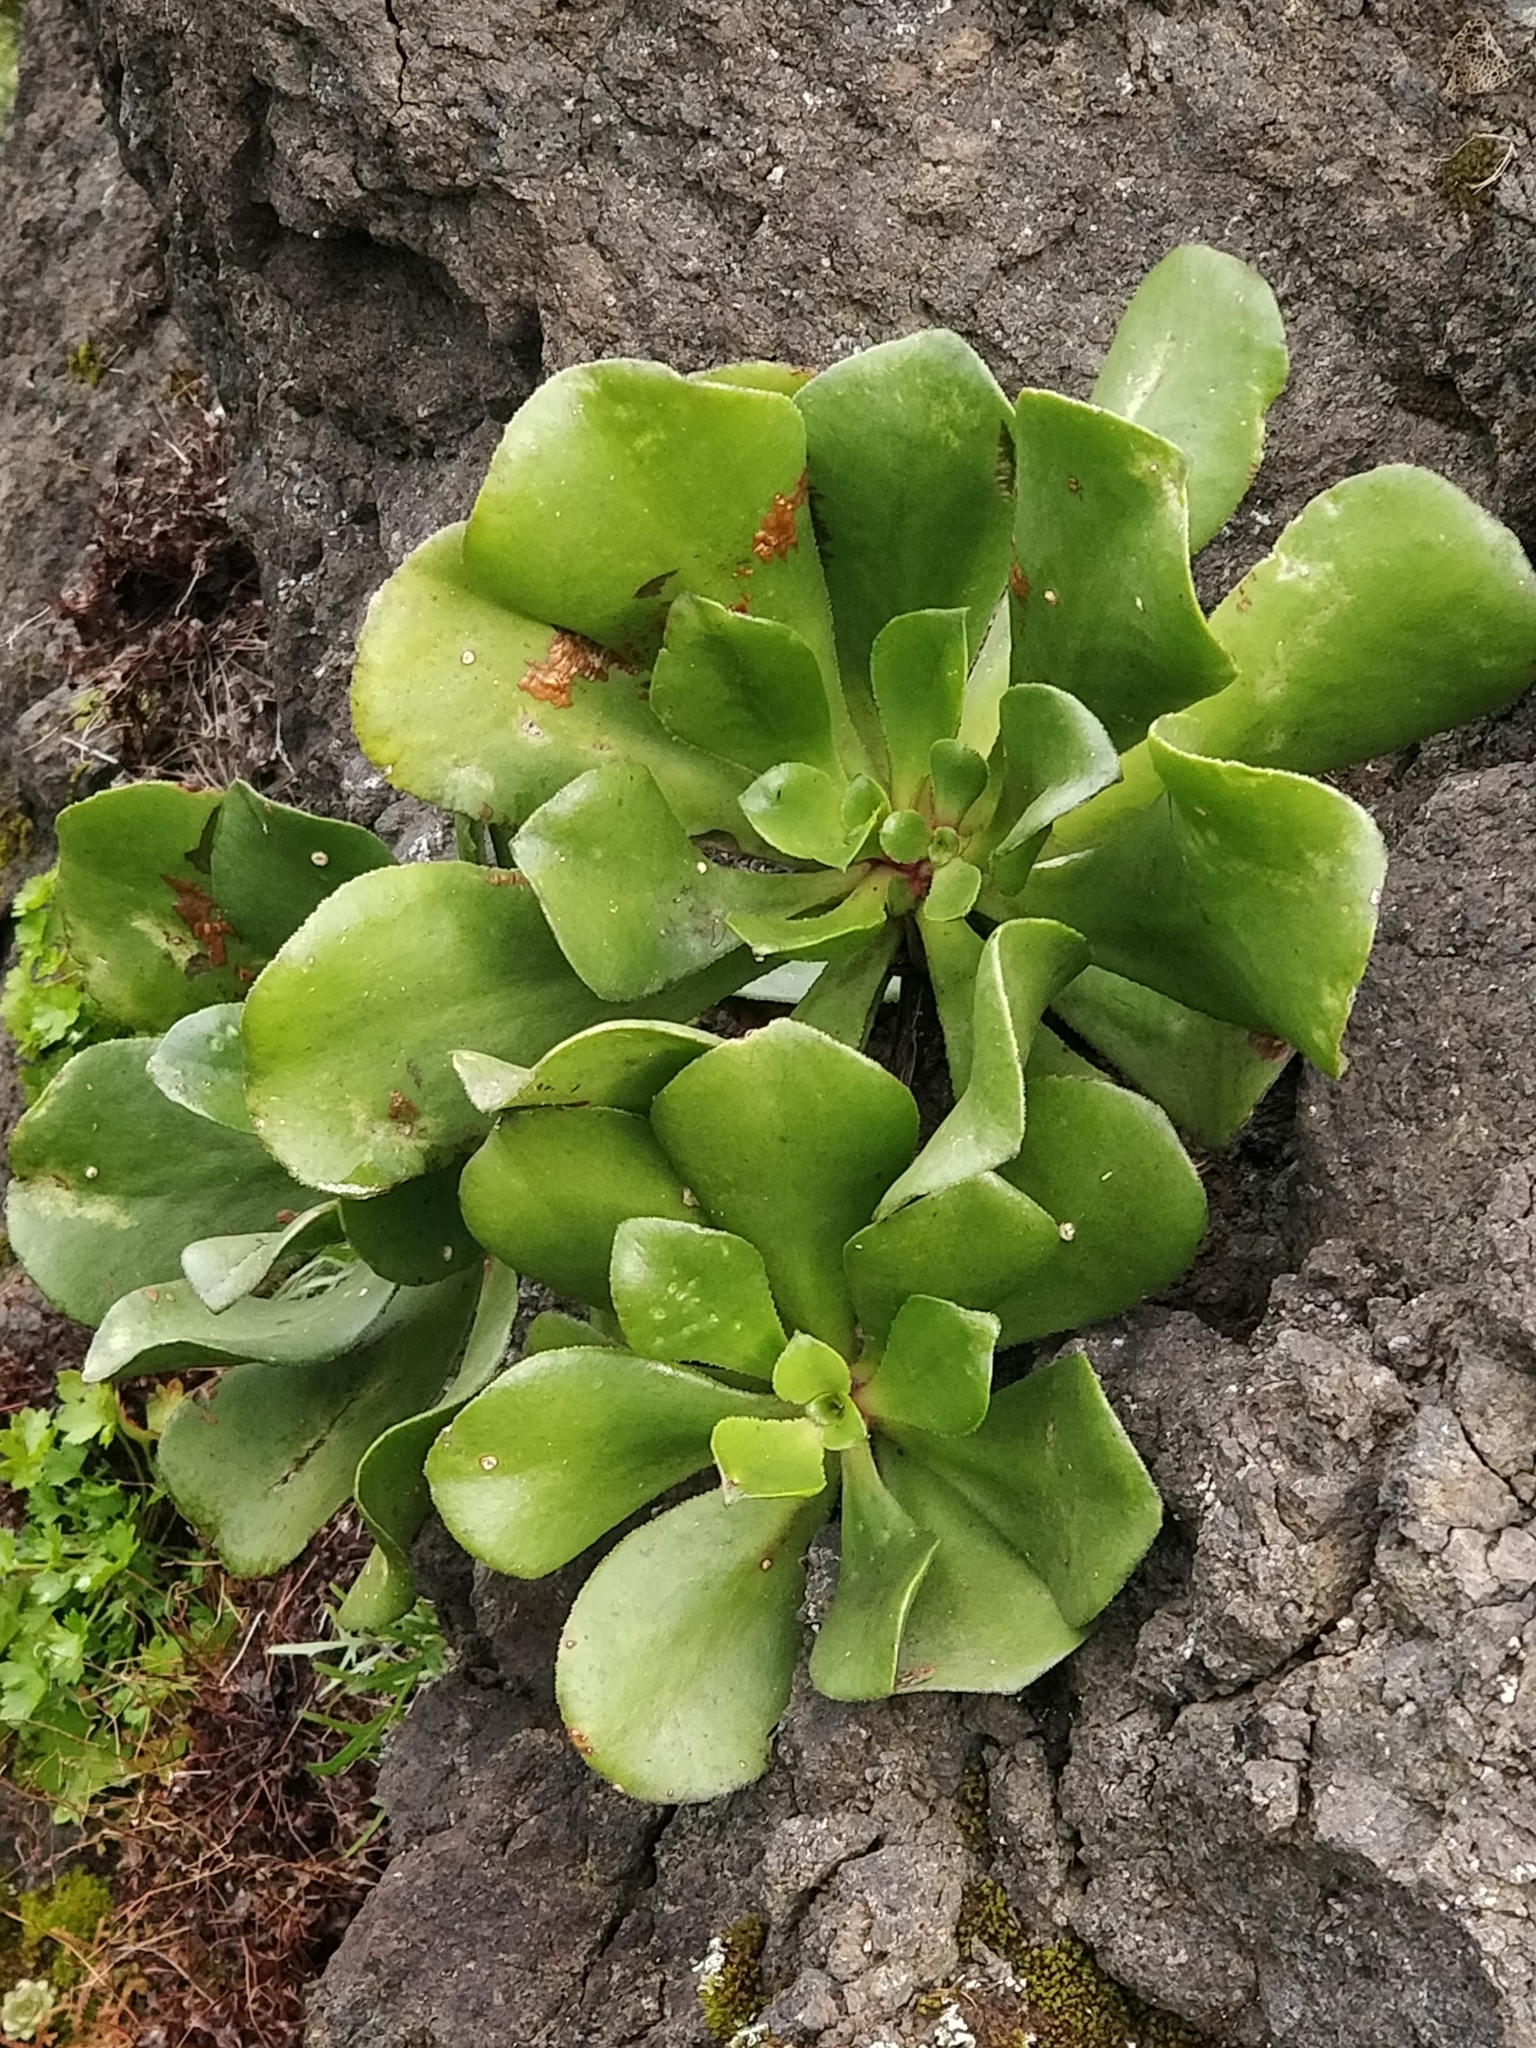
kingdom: Plantae
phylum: Tracheophyta
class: Magnoliopsida
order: Saxifragales
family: Crassulaceae
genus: Aeonium
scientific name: Aeonium glutinosum
